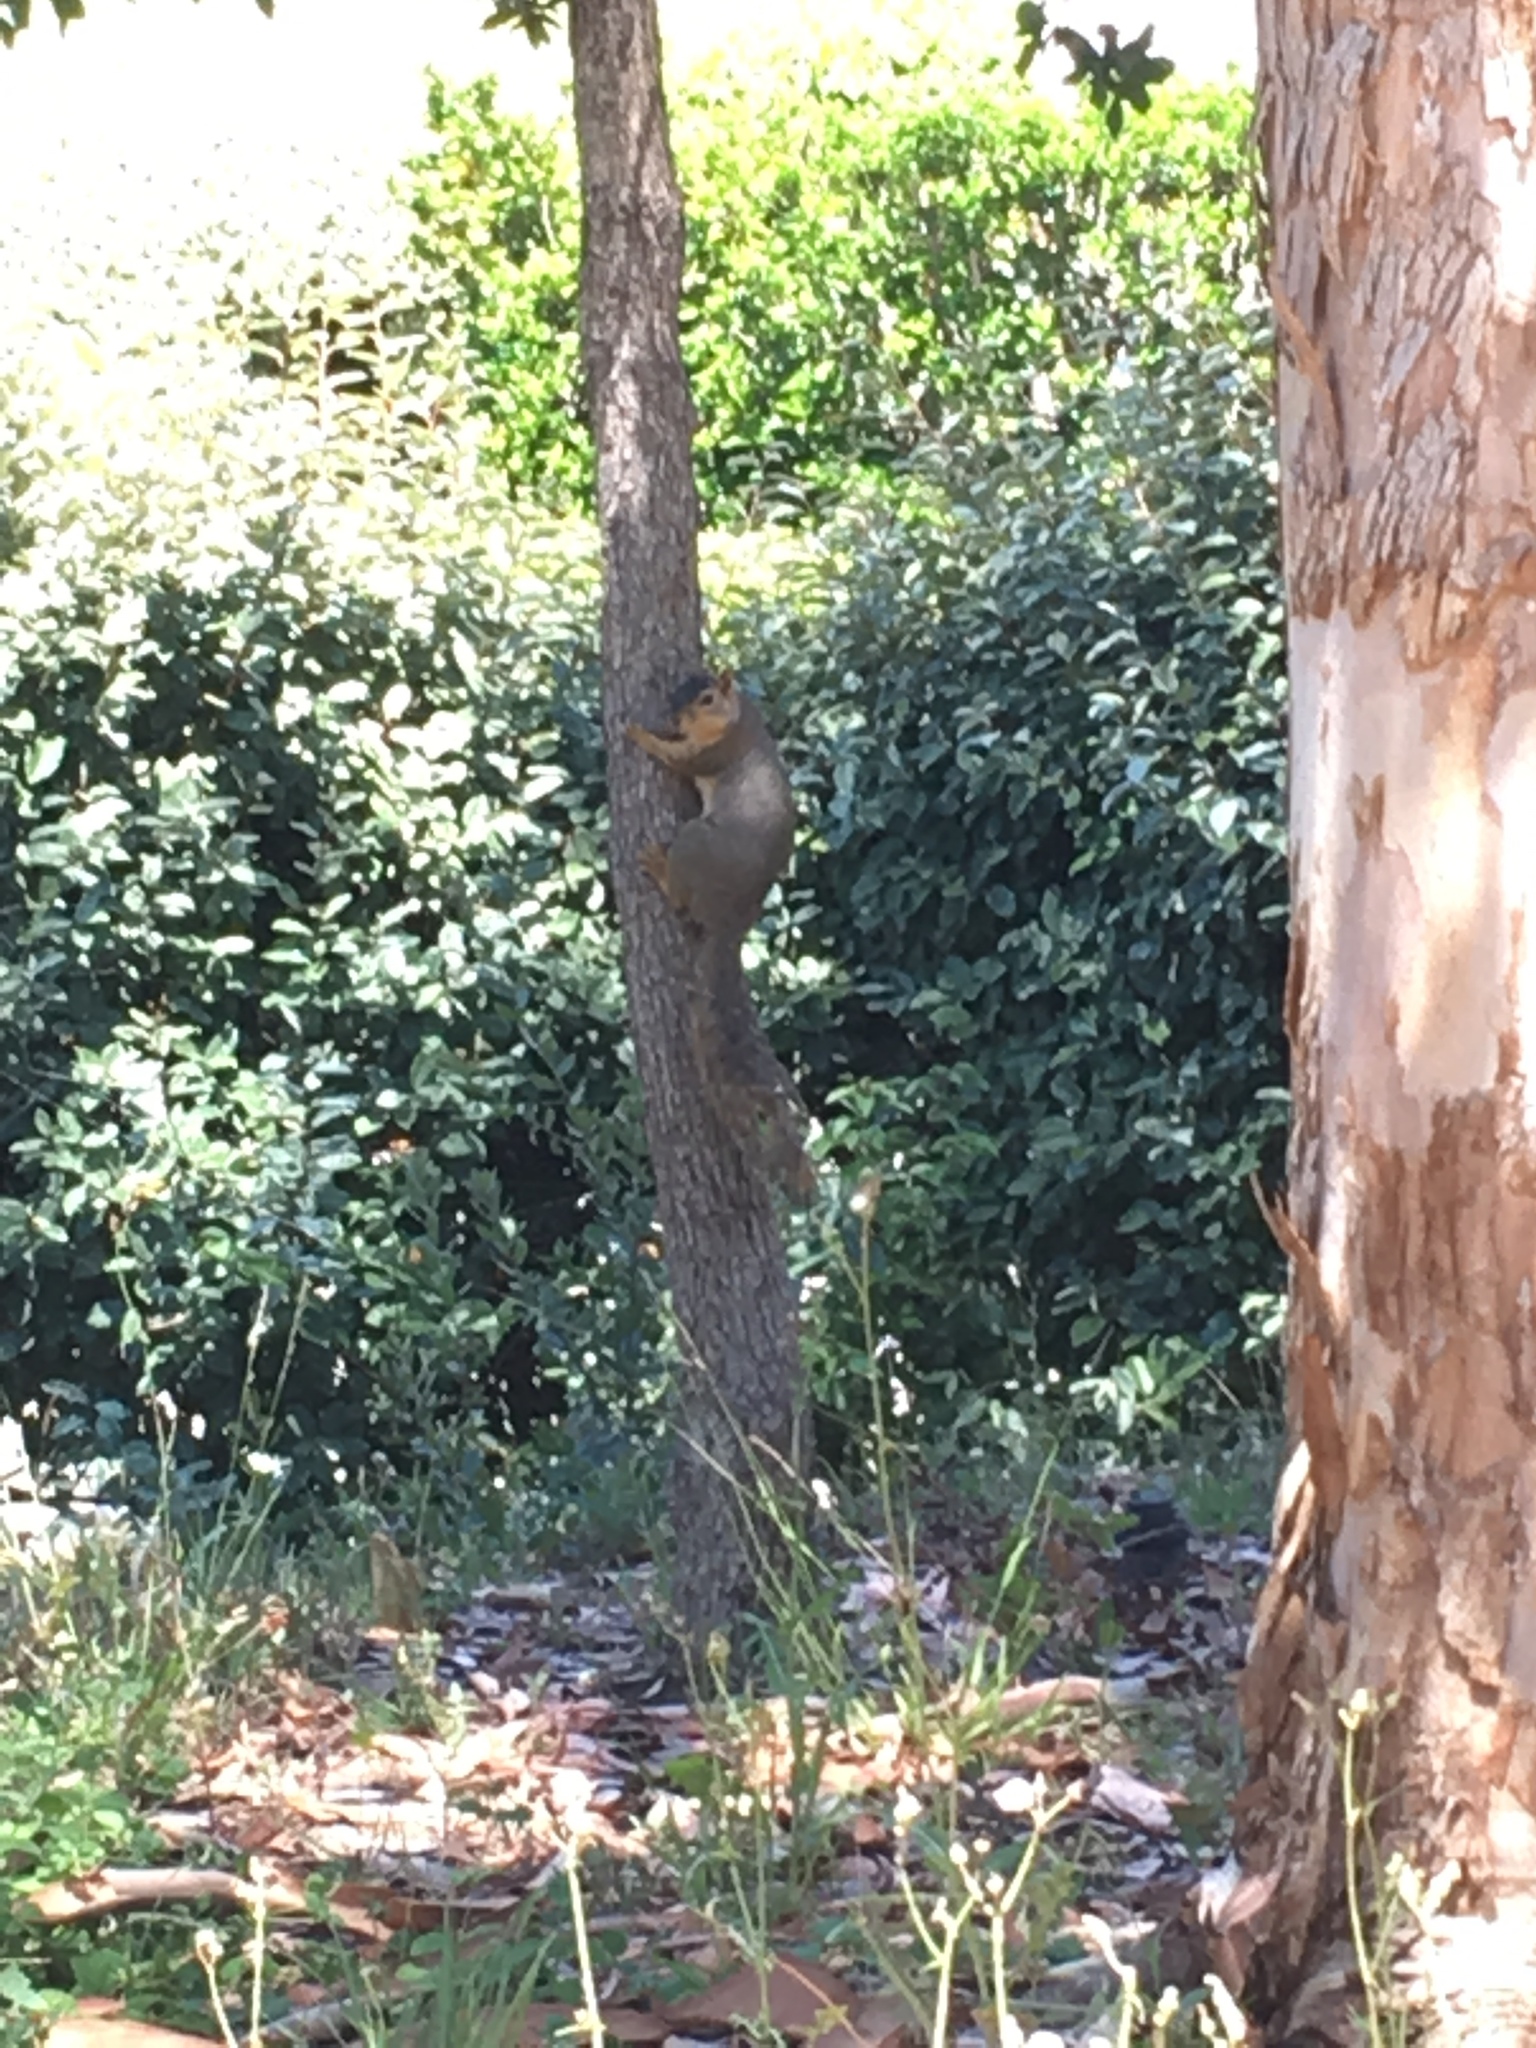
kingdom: Animalia
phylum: Chordata
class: Mammalia
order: Rodentia
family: Sciuridae
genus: Sciurus
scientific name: Sciurus niger
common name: Fox squirrel
